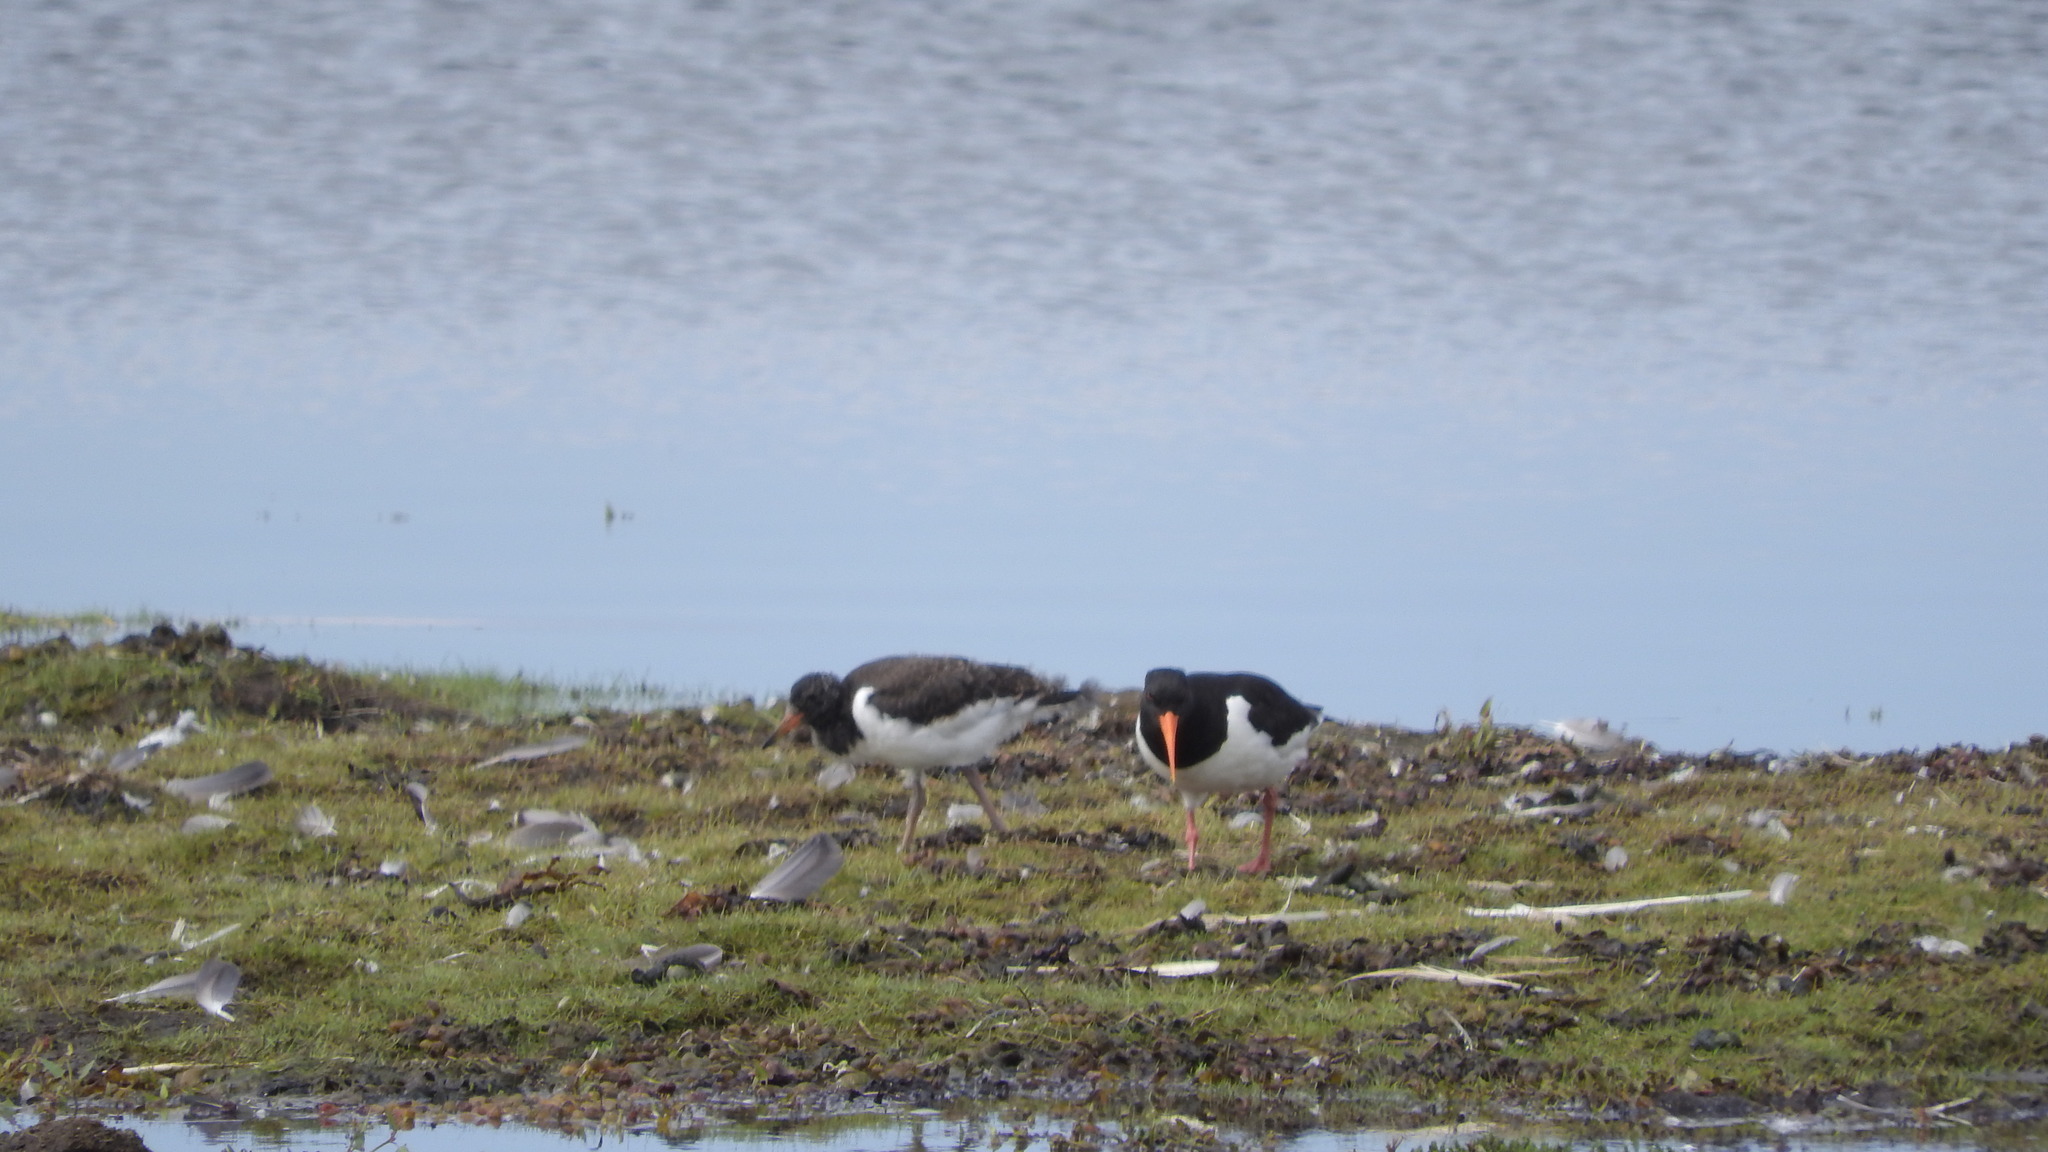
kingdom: Animalia
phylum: Chordata
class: Aves
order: Charadriiformes
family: Haematopodidae
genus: Haematopus
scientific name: Haematopus ostralegus
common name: Eurasian oystercatcher
